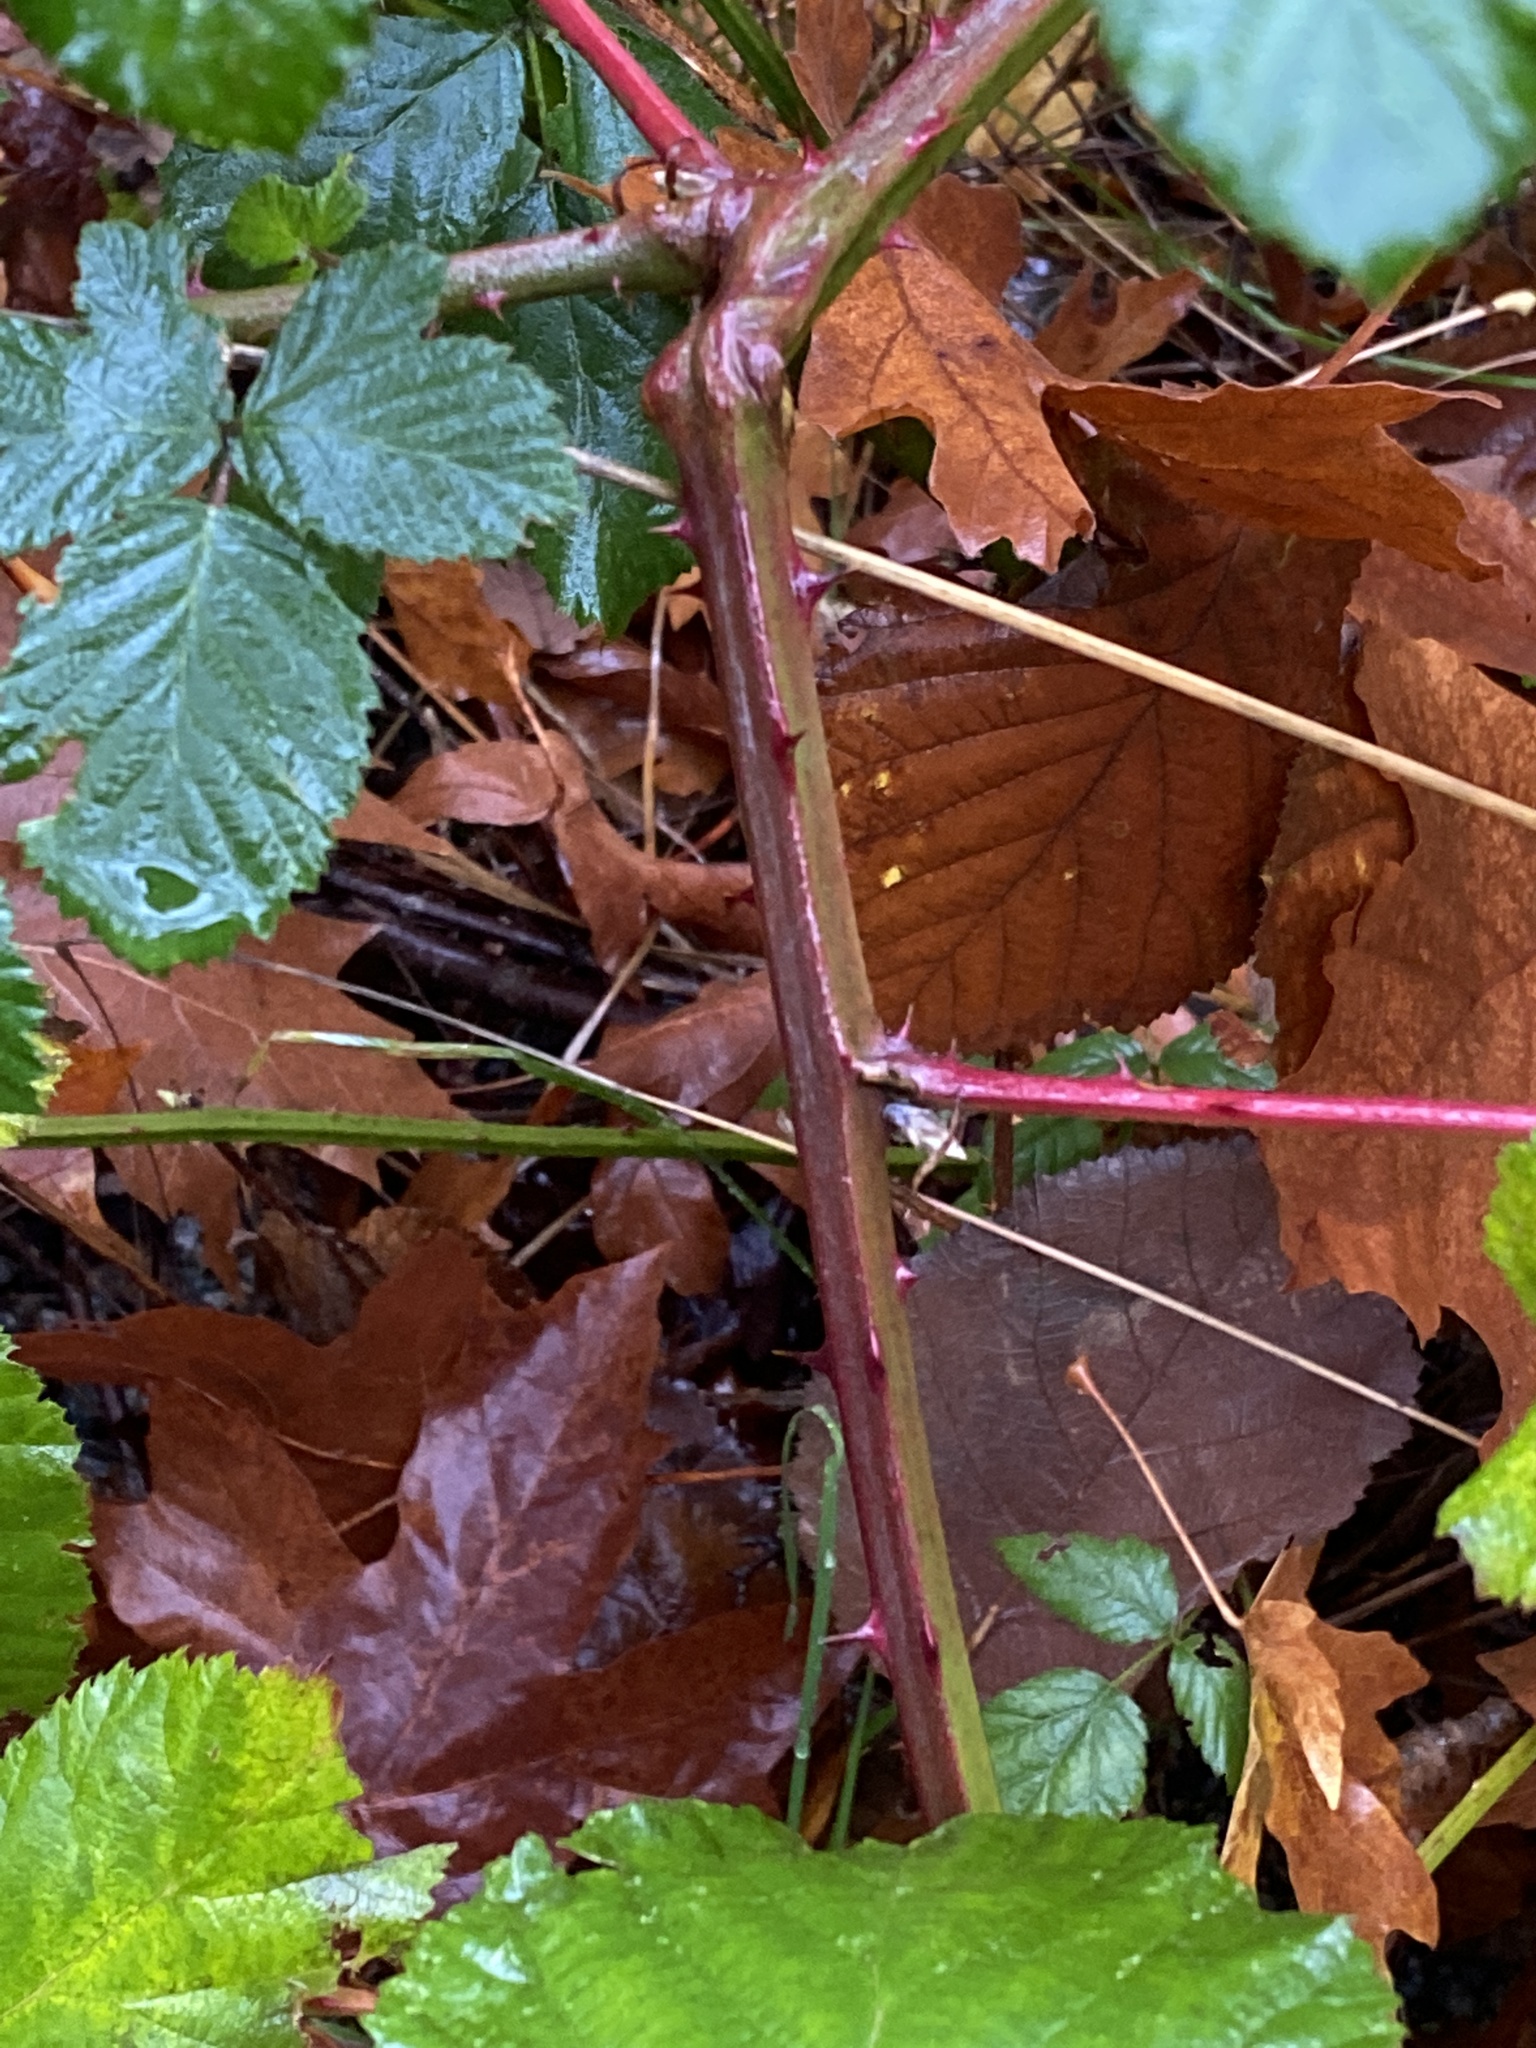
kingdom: Plantae
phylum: Tracheophyta
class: Magnoliopsida
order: Rosales
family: Rosaceae
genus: Rubus
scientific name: Rubus bifrons
